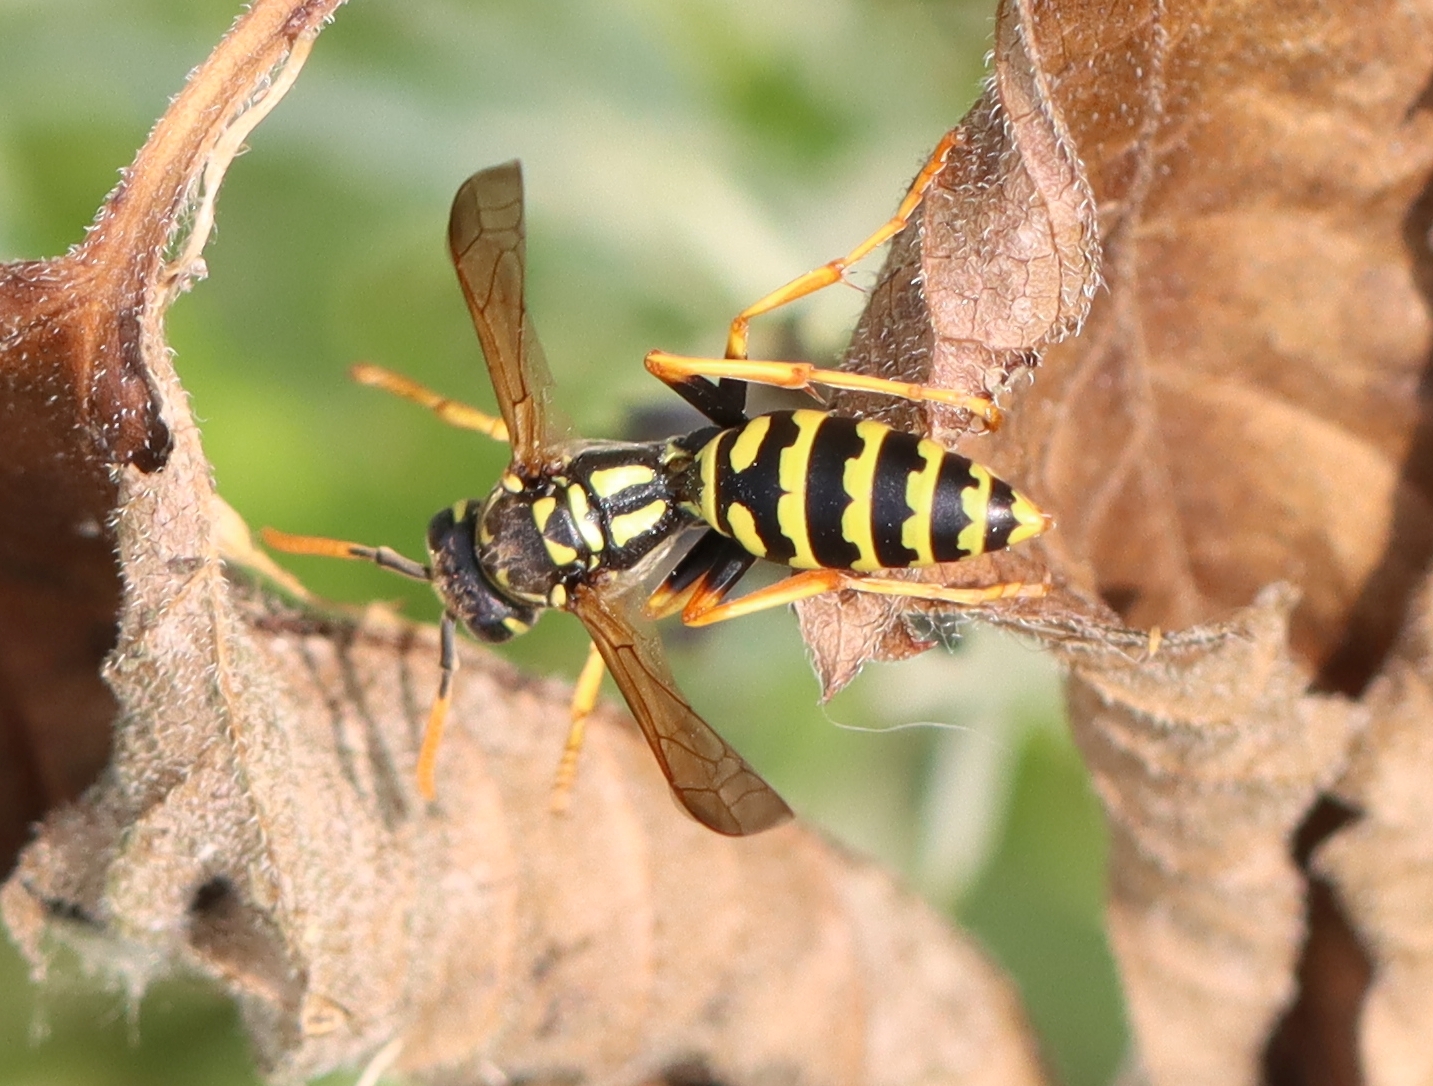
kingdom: Animalia
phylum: Arthropoda
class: Insecta
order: Hymenoptera
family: Eumenidae
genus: Polistes
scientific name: Polistes dominula
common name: Paper wasp
